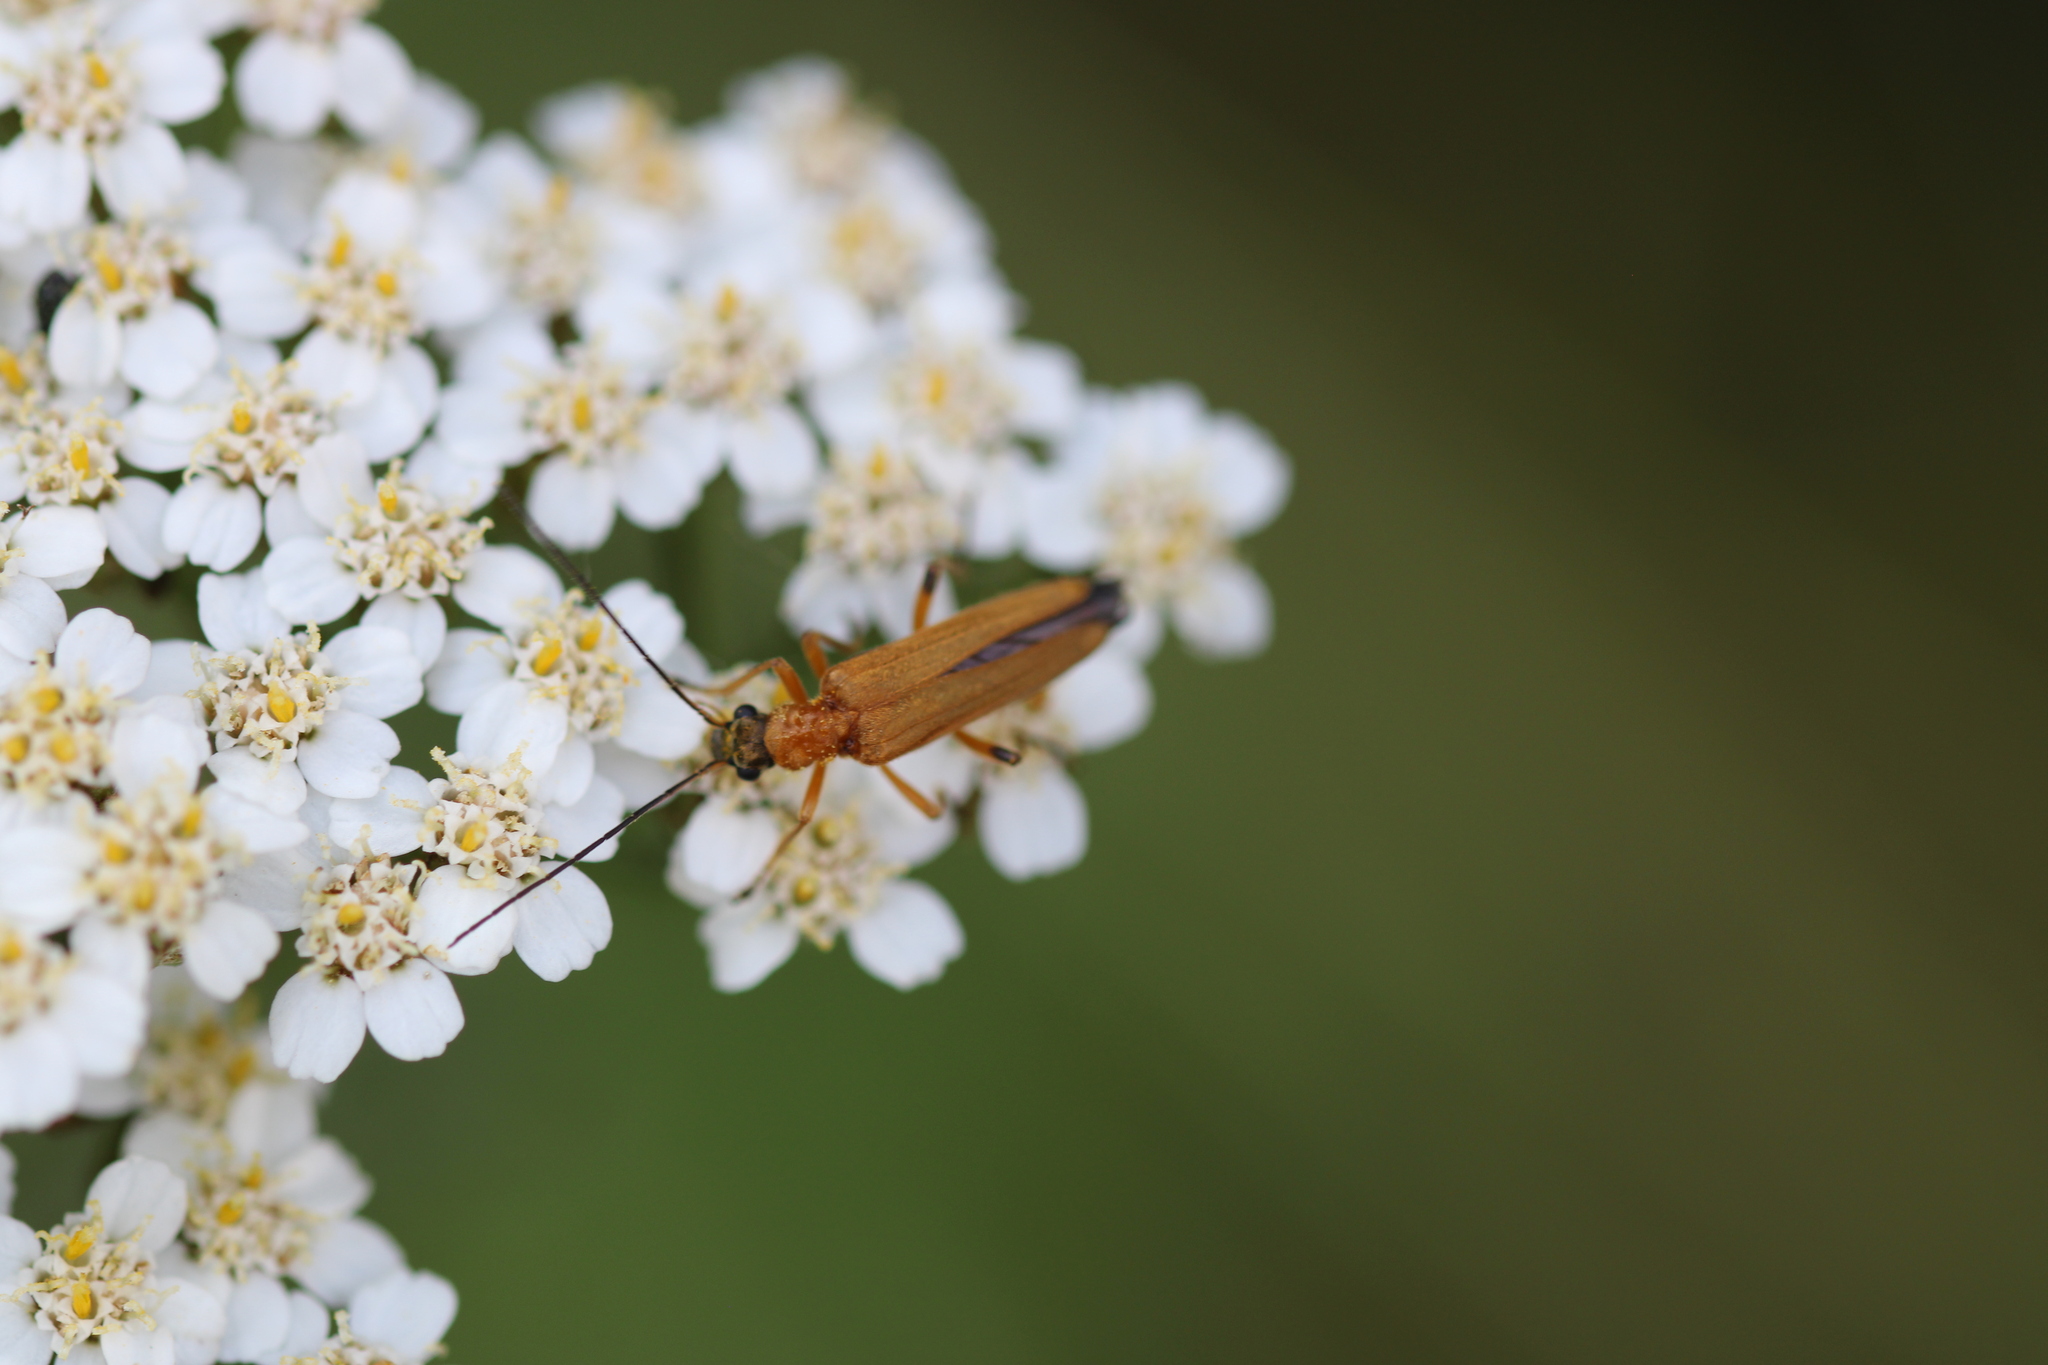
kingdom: Animalia
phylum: Arthropoda
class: Insecta
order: Coleoptera
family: Oedemeridae
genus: Oedemera
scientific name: Oedemera podagrariae
